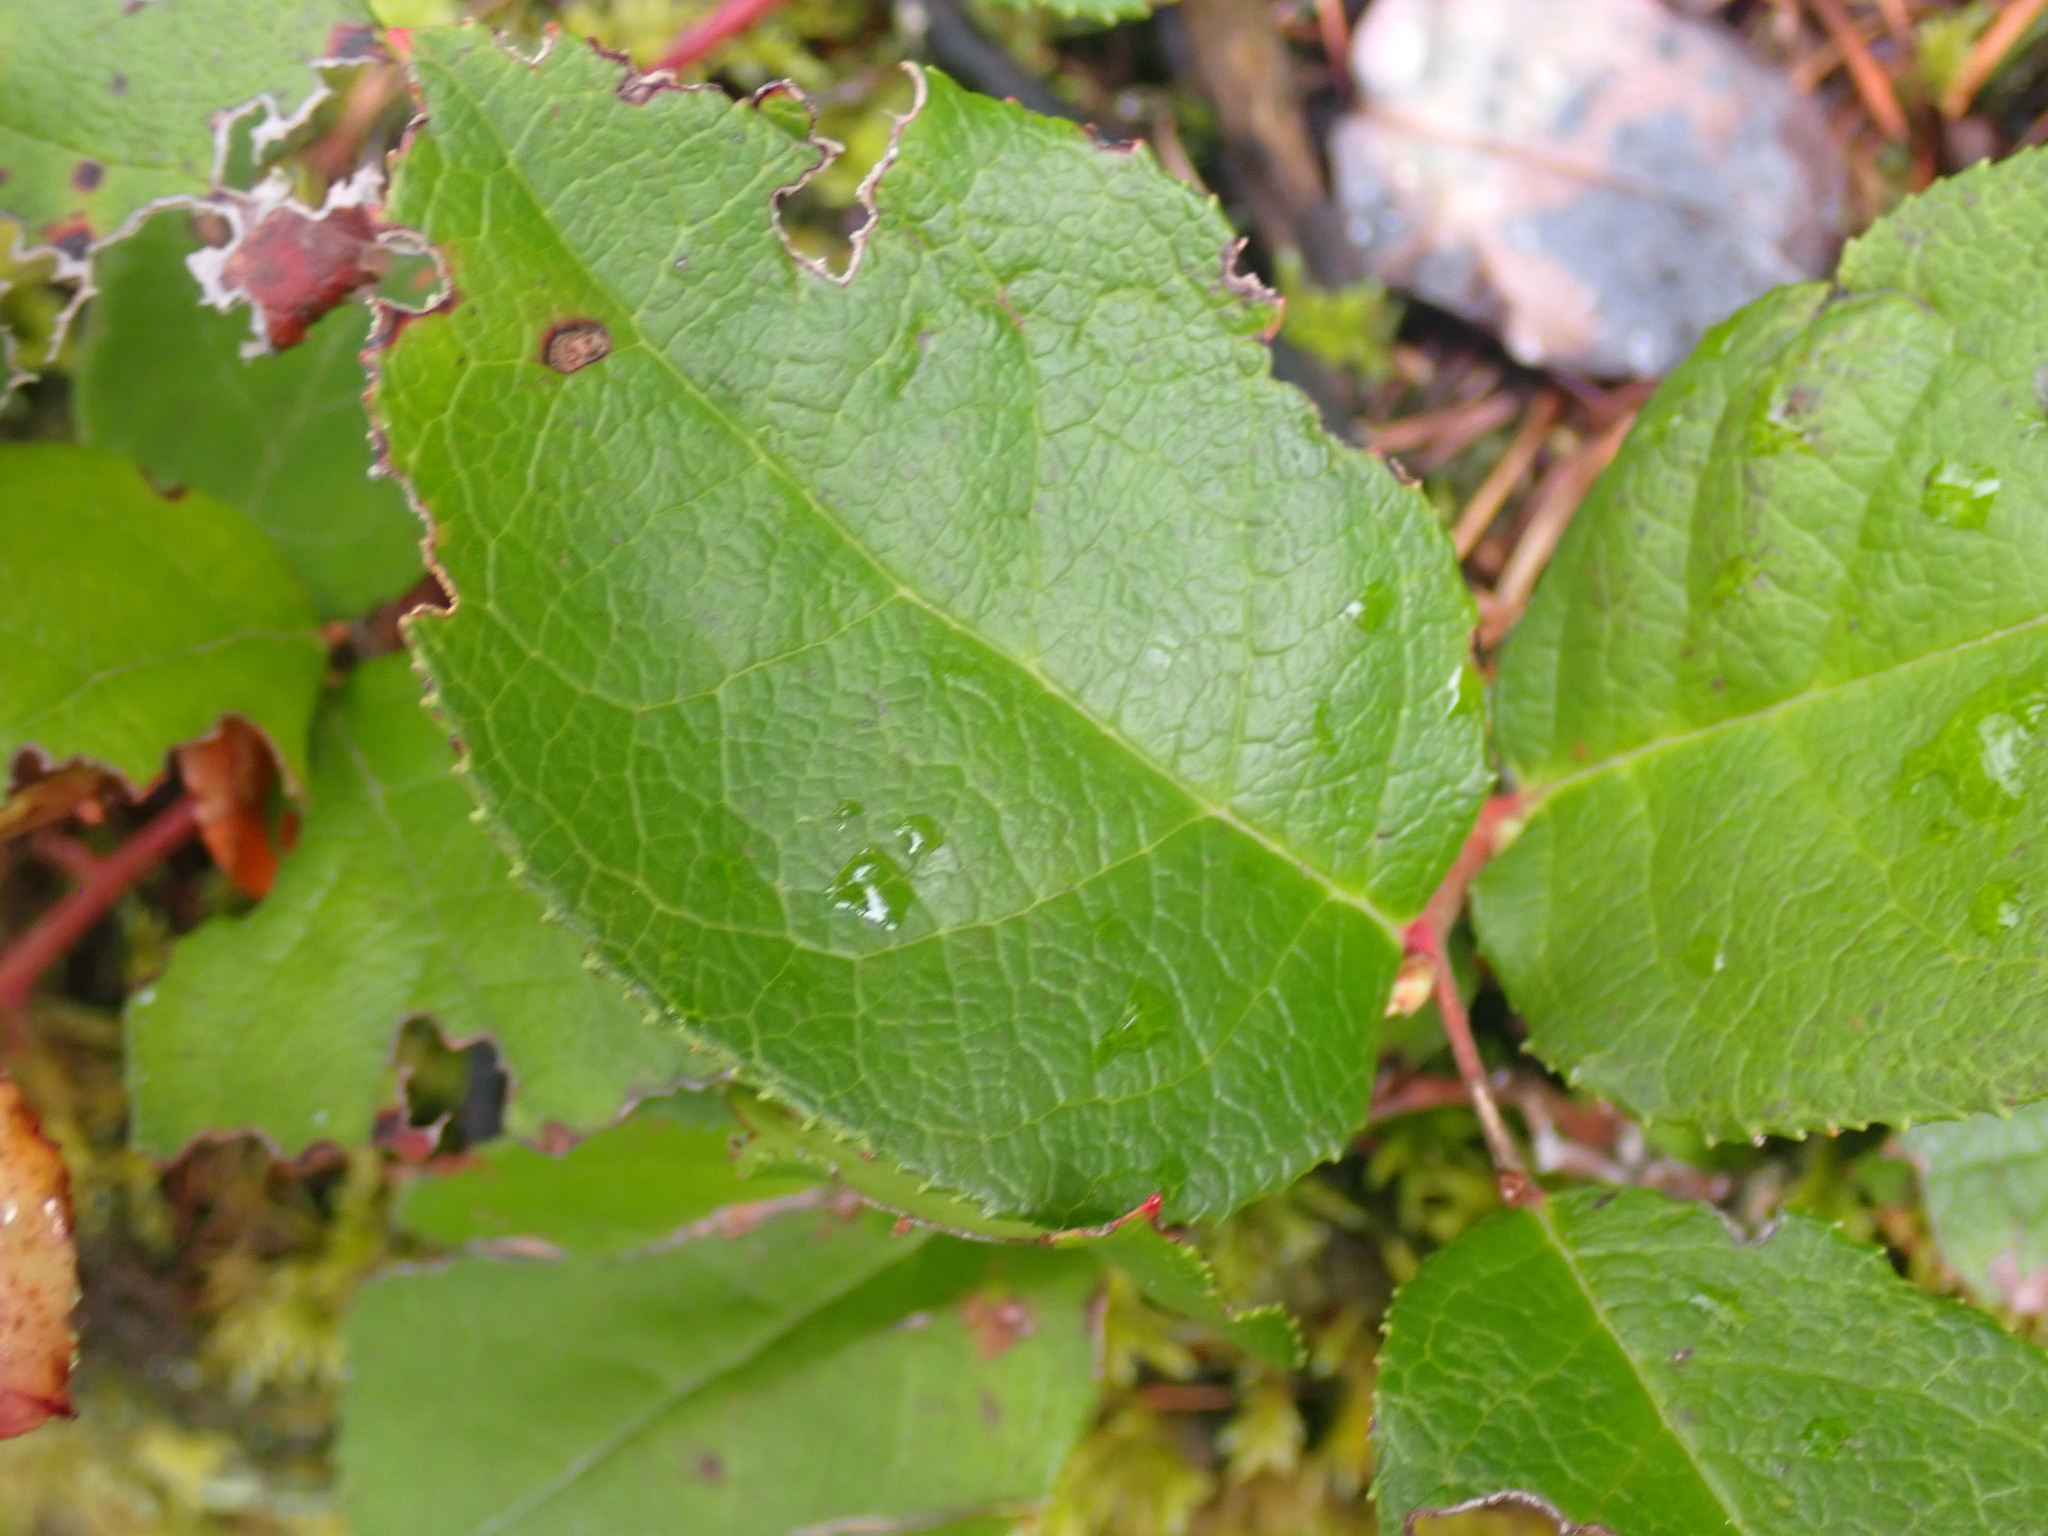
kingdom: Plantae
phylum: Tracheophyta
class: Magnoliopsida
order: Ericales
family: Ericaceae
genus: Gaultheria
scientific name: Gaultheria shallon
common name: Shallon
